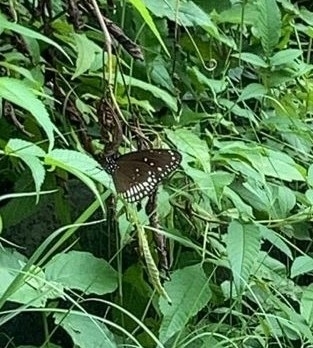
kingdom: Animalia
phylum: Arthropoda
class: Insecta
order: Lepidoptera
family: Nymphalidae
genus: Euploea
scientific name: Euploea core
